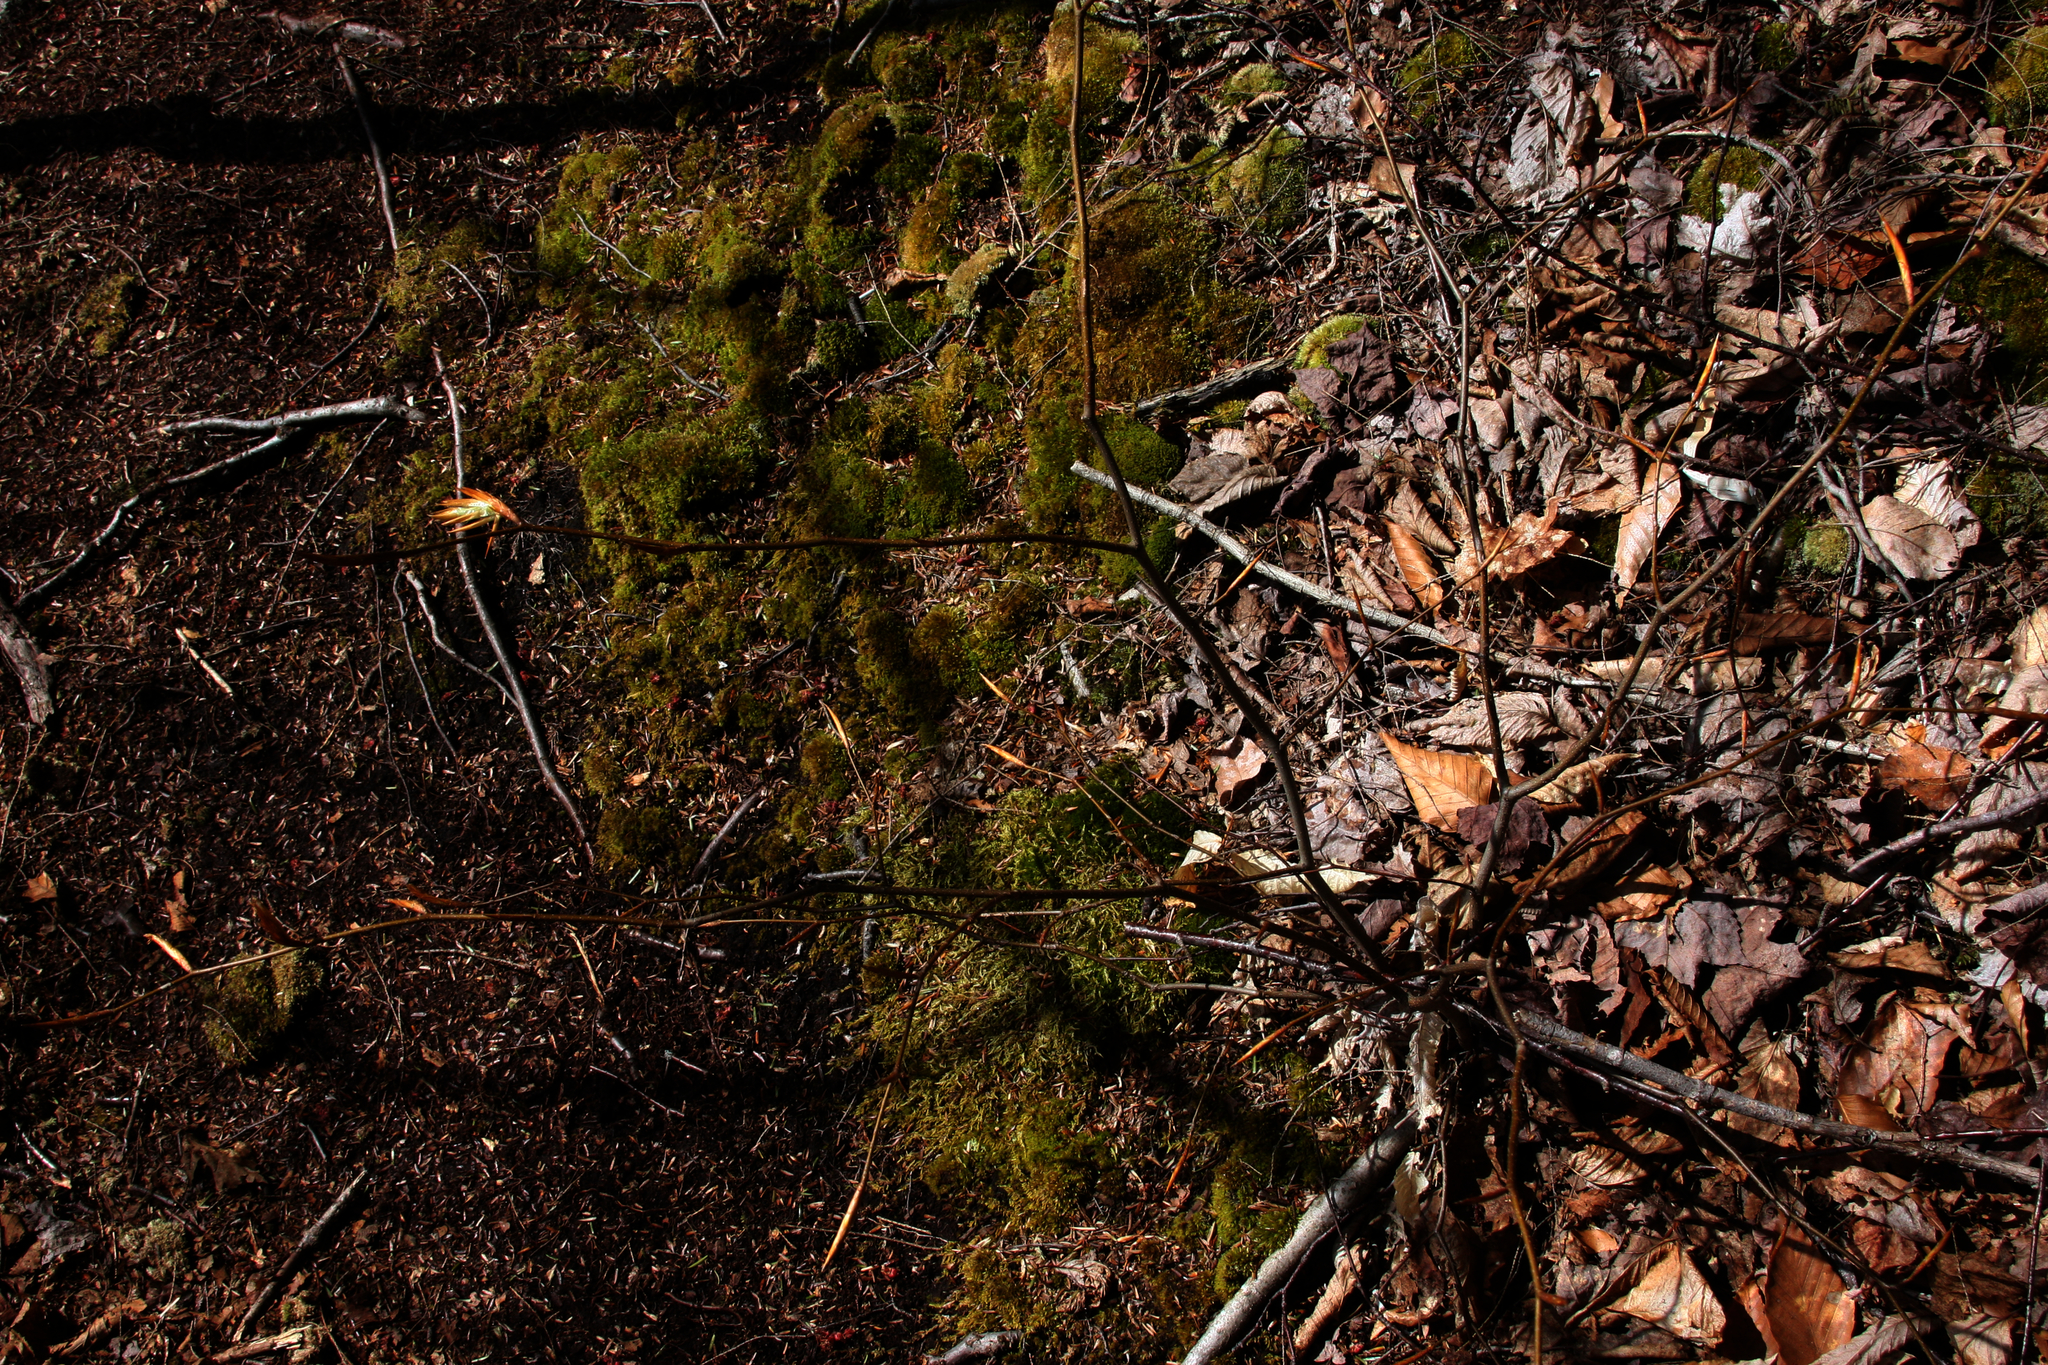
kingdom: Plantae
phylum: Tracheophyta
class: Magnoliopsida
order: Fagales
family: Fagaceae
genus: Fagus
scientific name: Fagus grandifolia
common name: American beech
